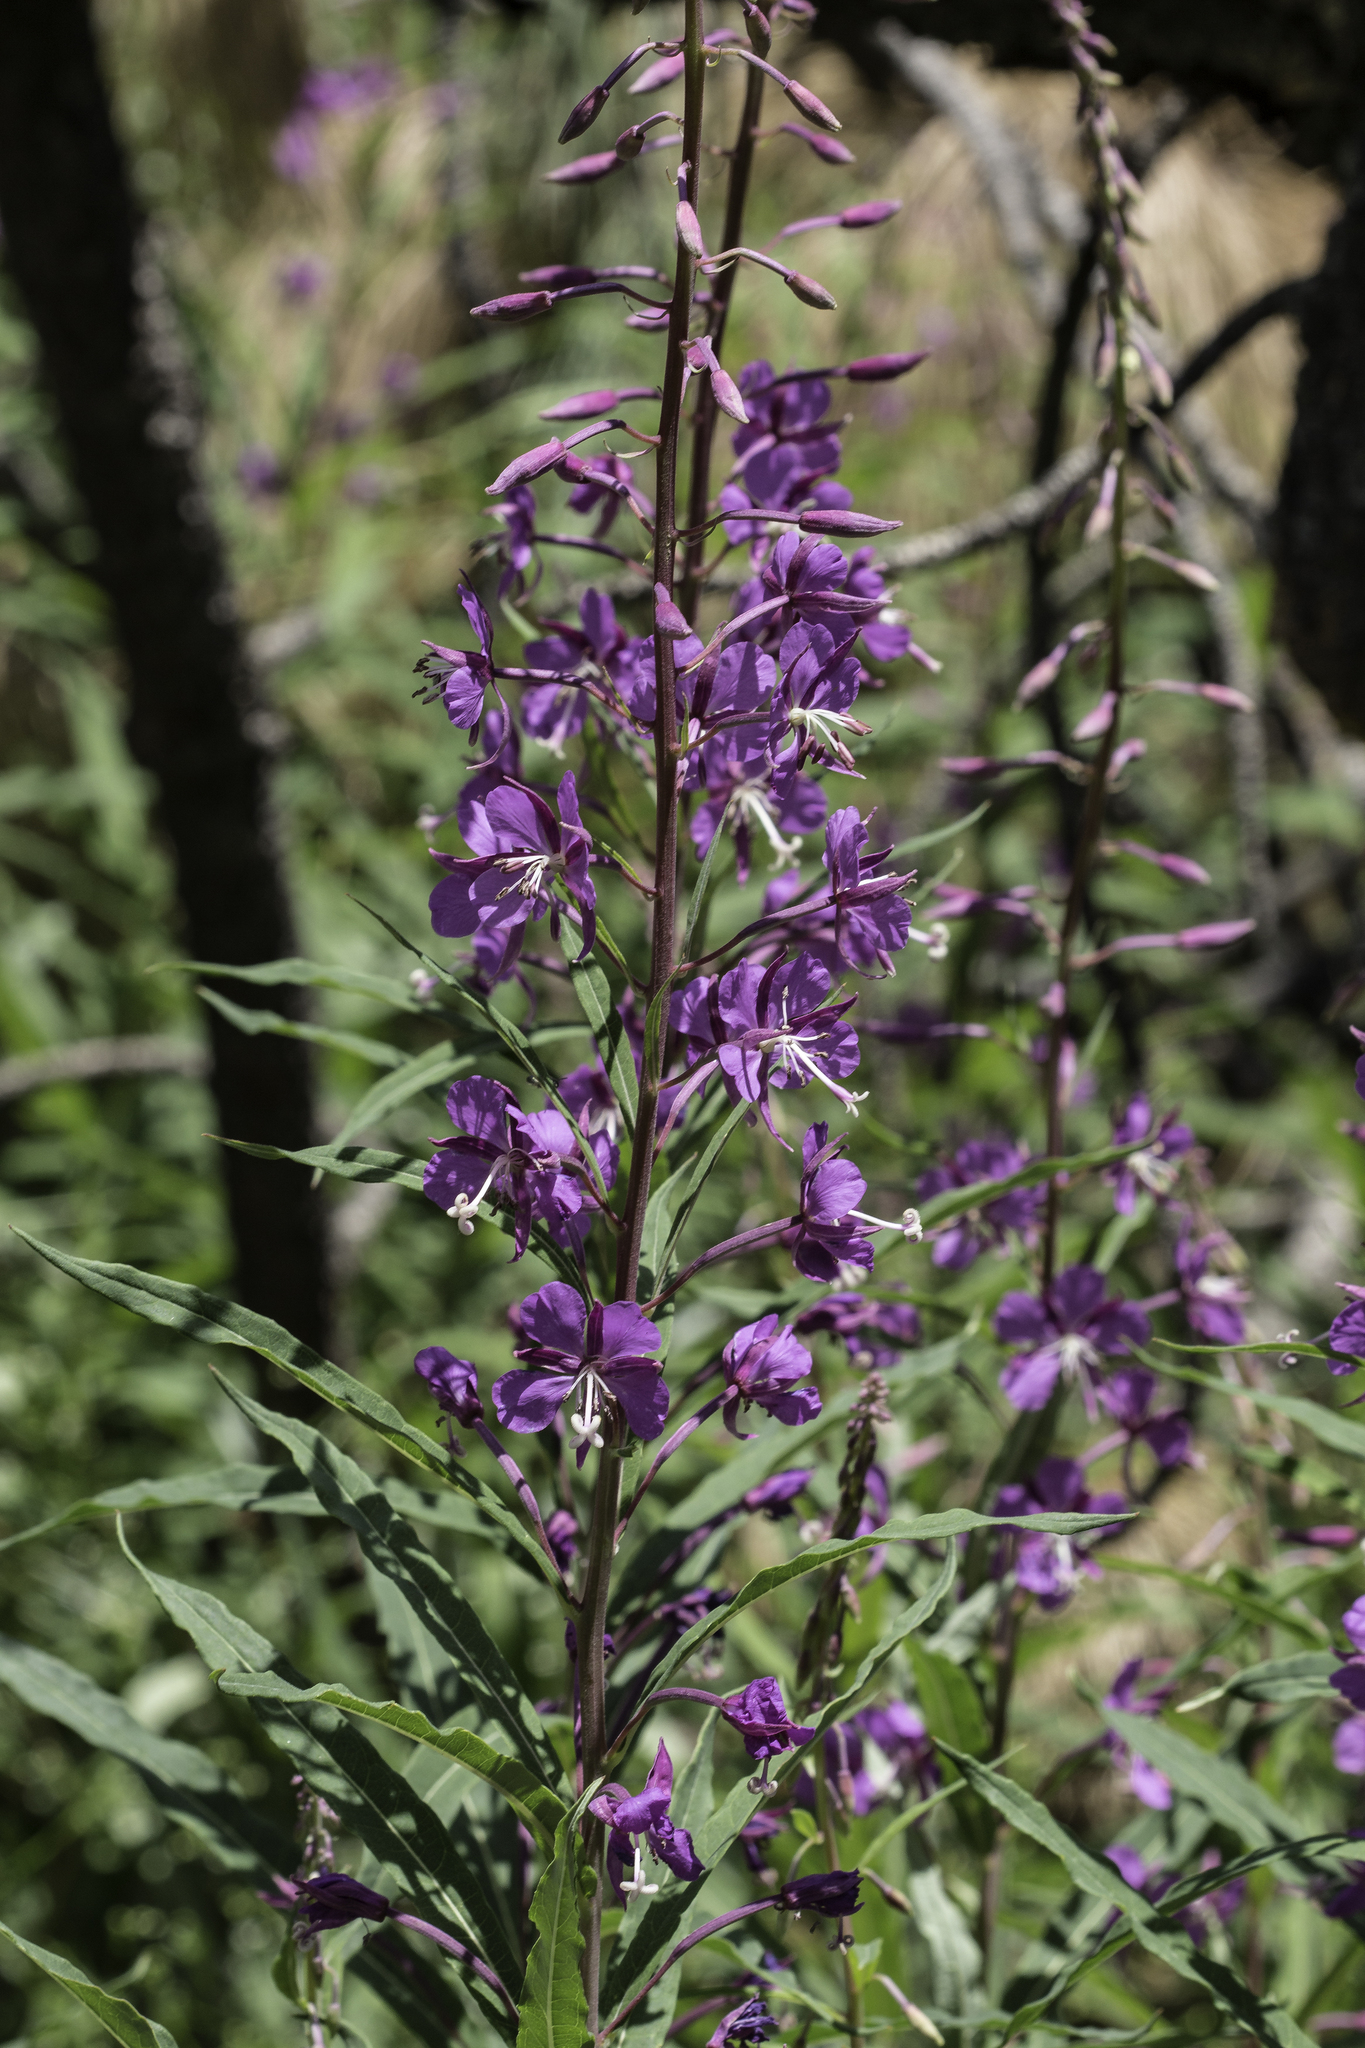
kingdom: Plantae
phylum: Tracheophyta
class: Magnoliopsida
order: Myrtales
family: Onagraceae
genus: Chamaenerion
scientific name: Chamaenerion angustifolium
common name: Fireweed
